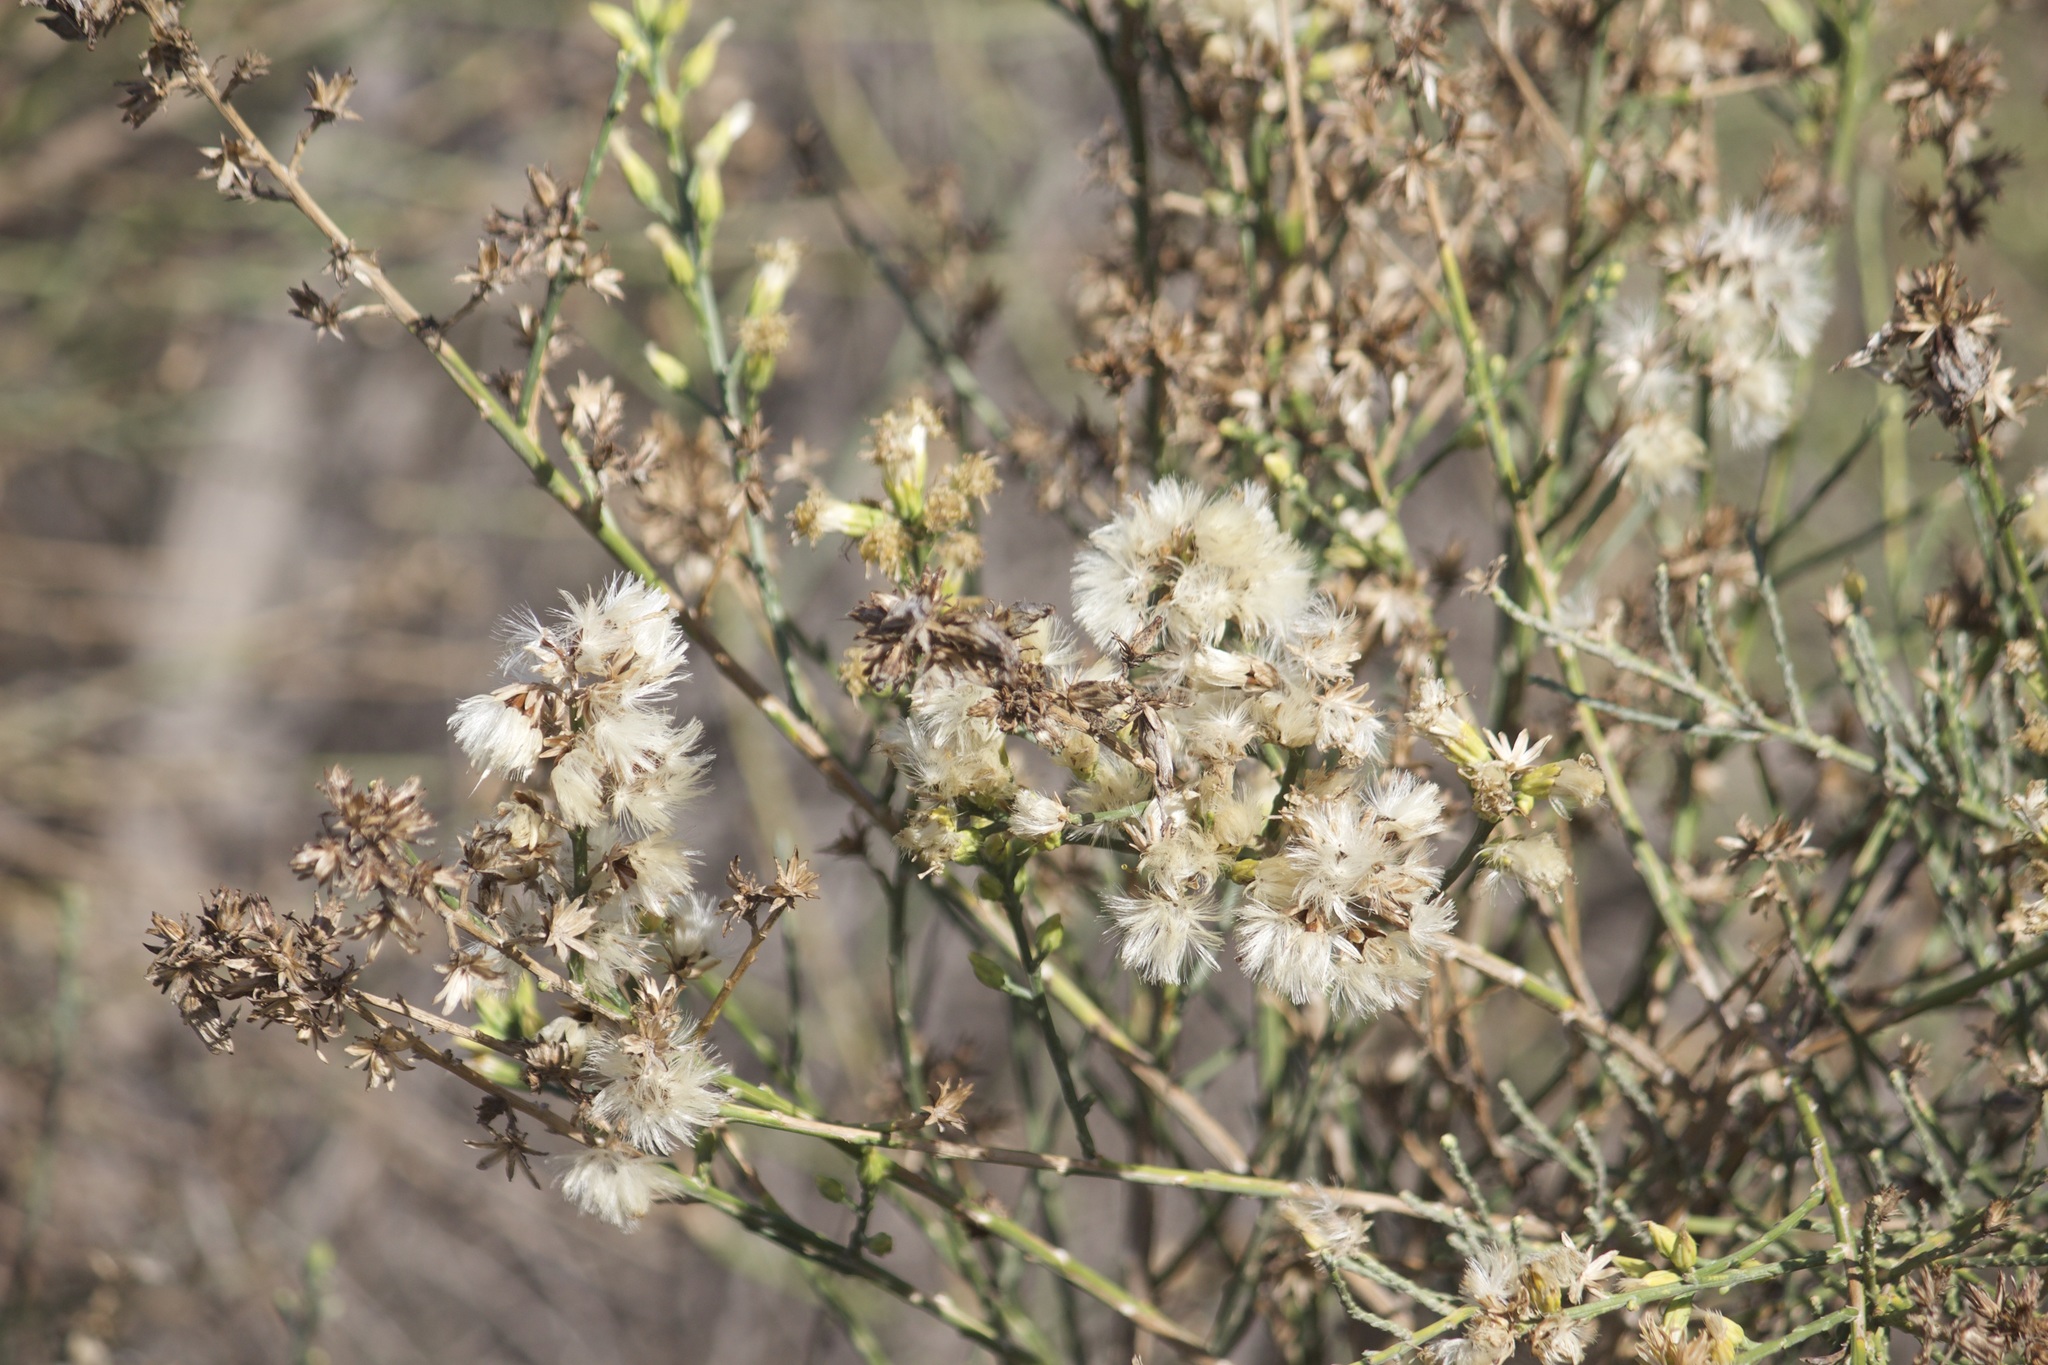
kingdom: Plantae
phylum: Tracheophyta
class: Magnoliopsida
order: Asterales
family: Asteraceae
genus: Lepidospartum
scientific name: Lepidospartum squamatum
